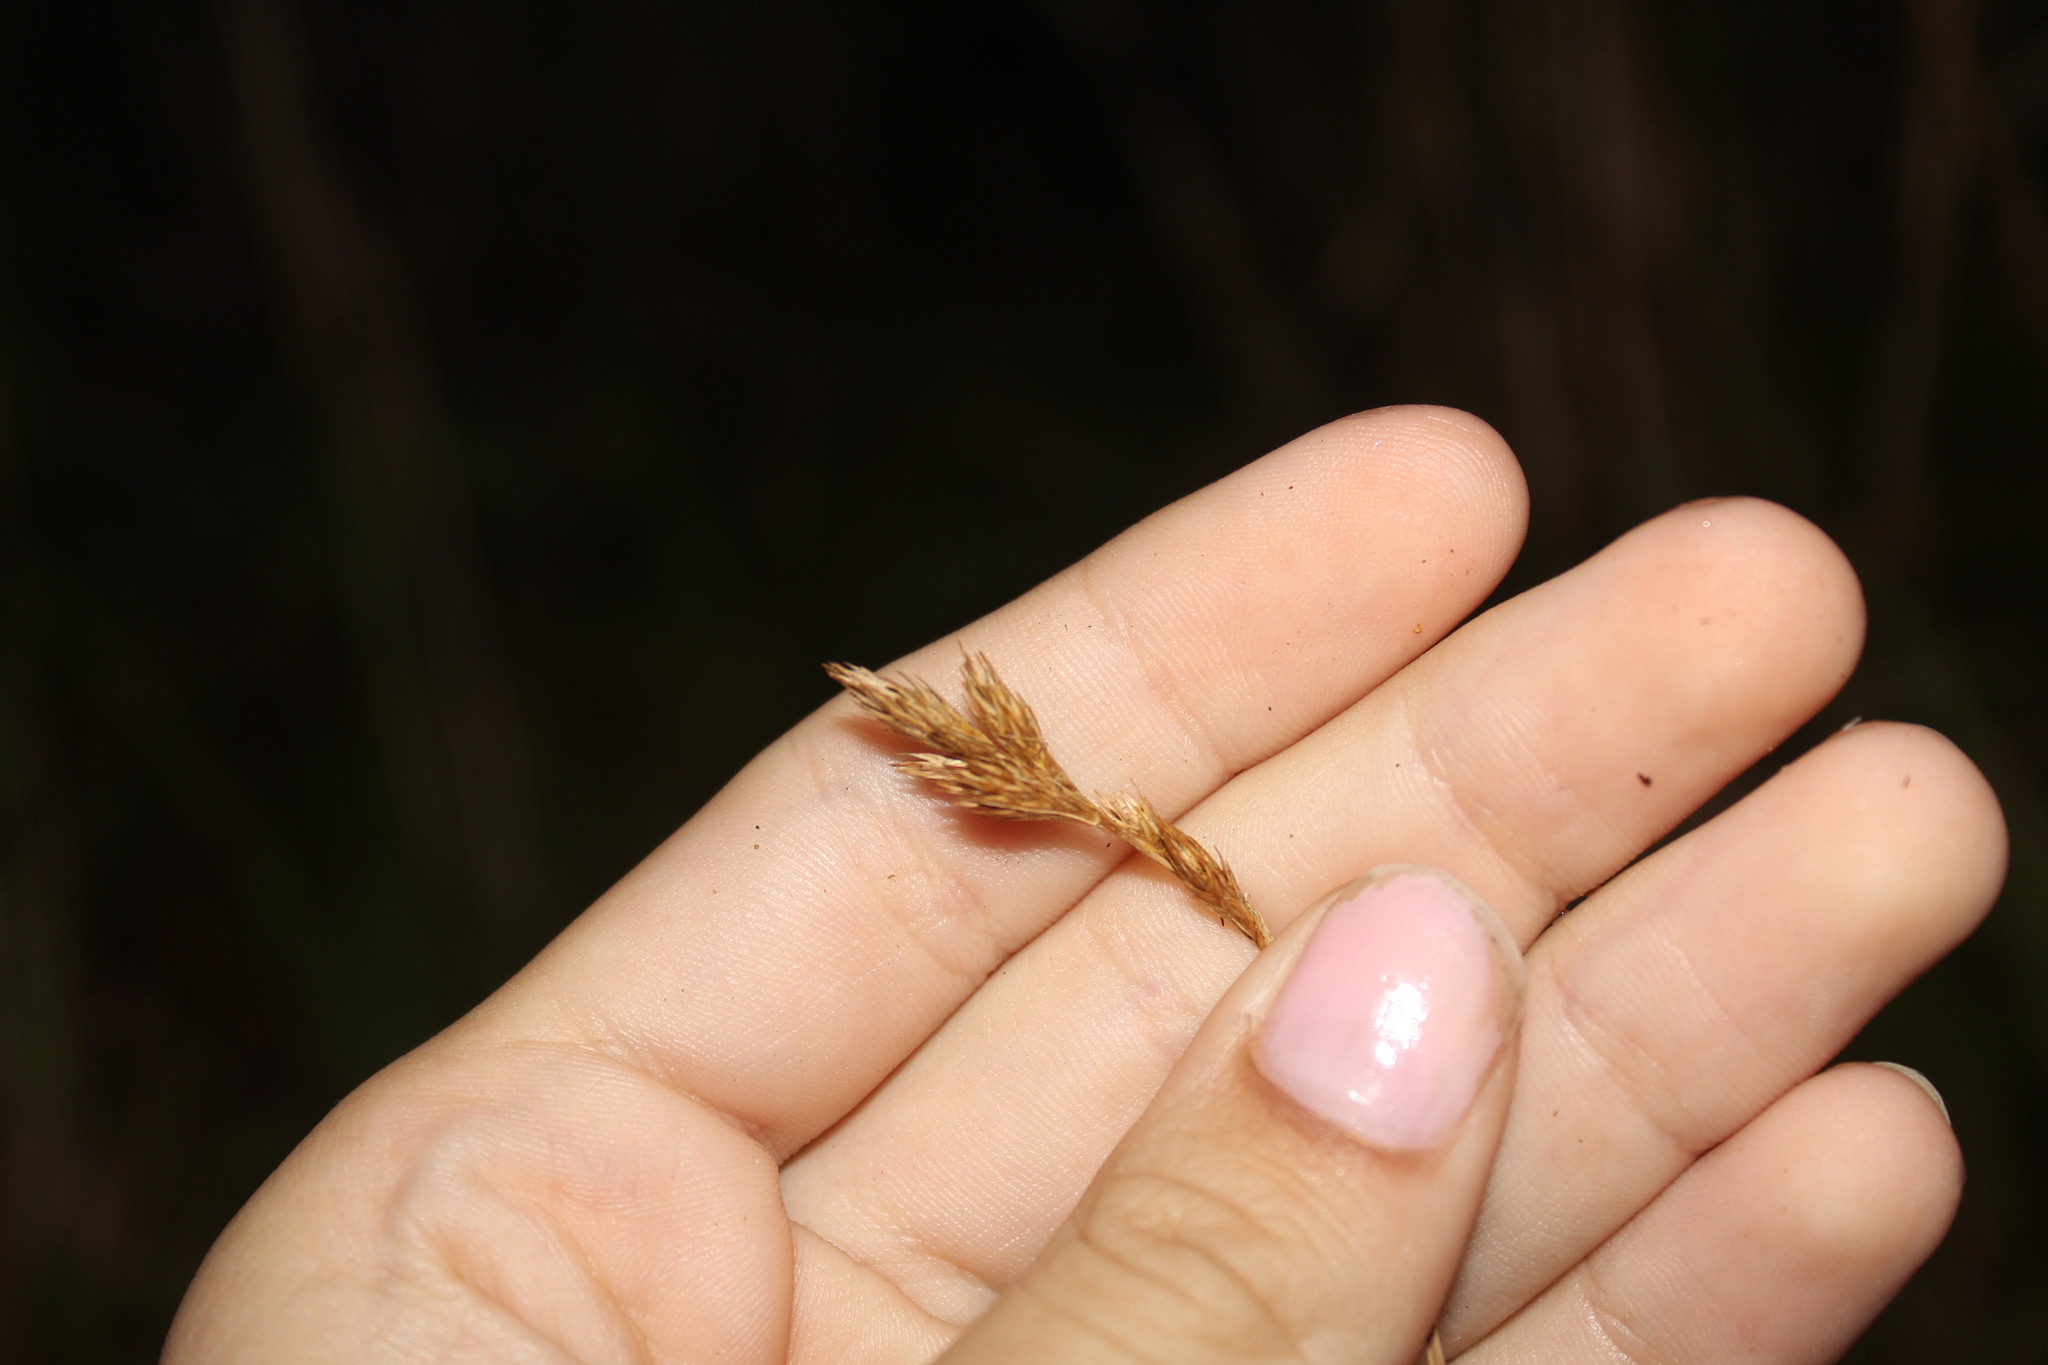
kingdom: Plantae
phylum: Tracheophyta
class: Liliopsida
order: Poales
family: Cyperaceae
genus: Carex
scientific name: Carex scoparia
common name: Broom sedge
